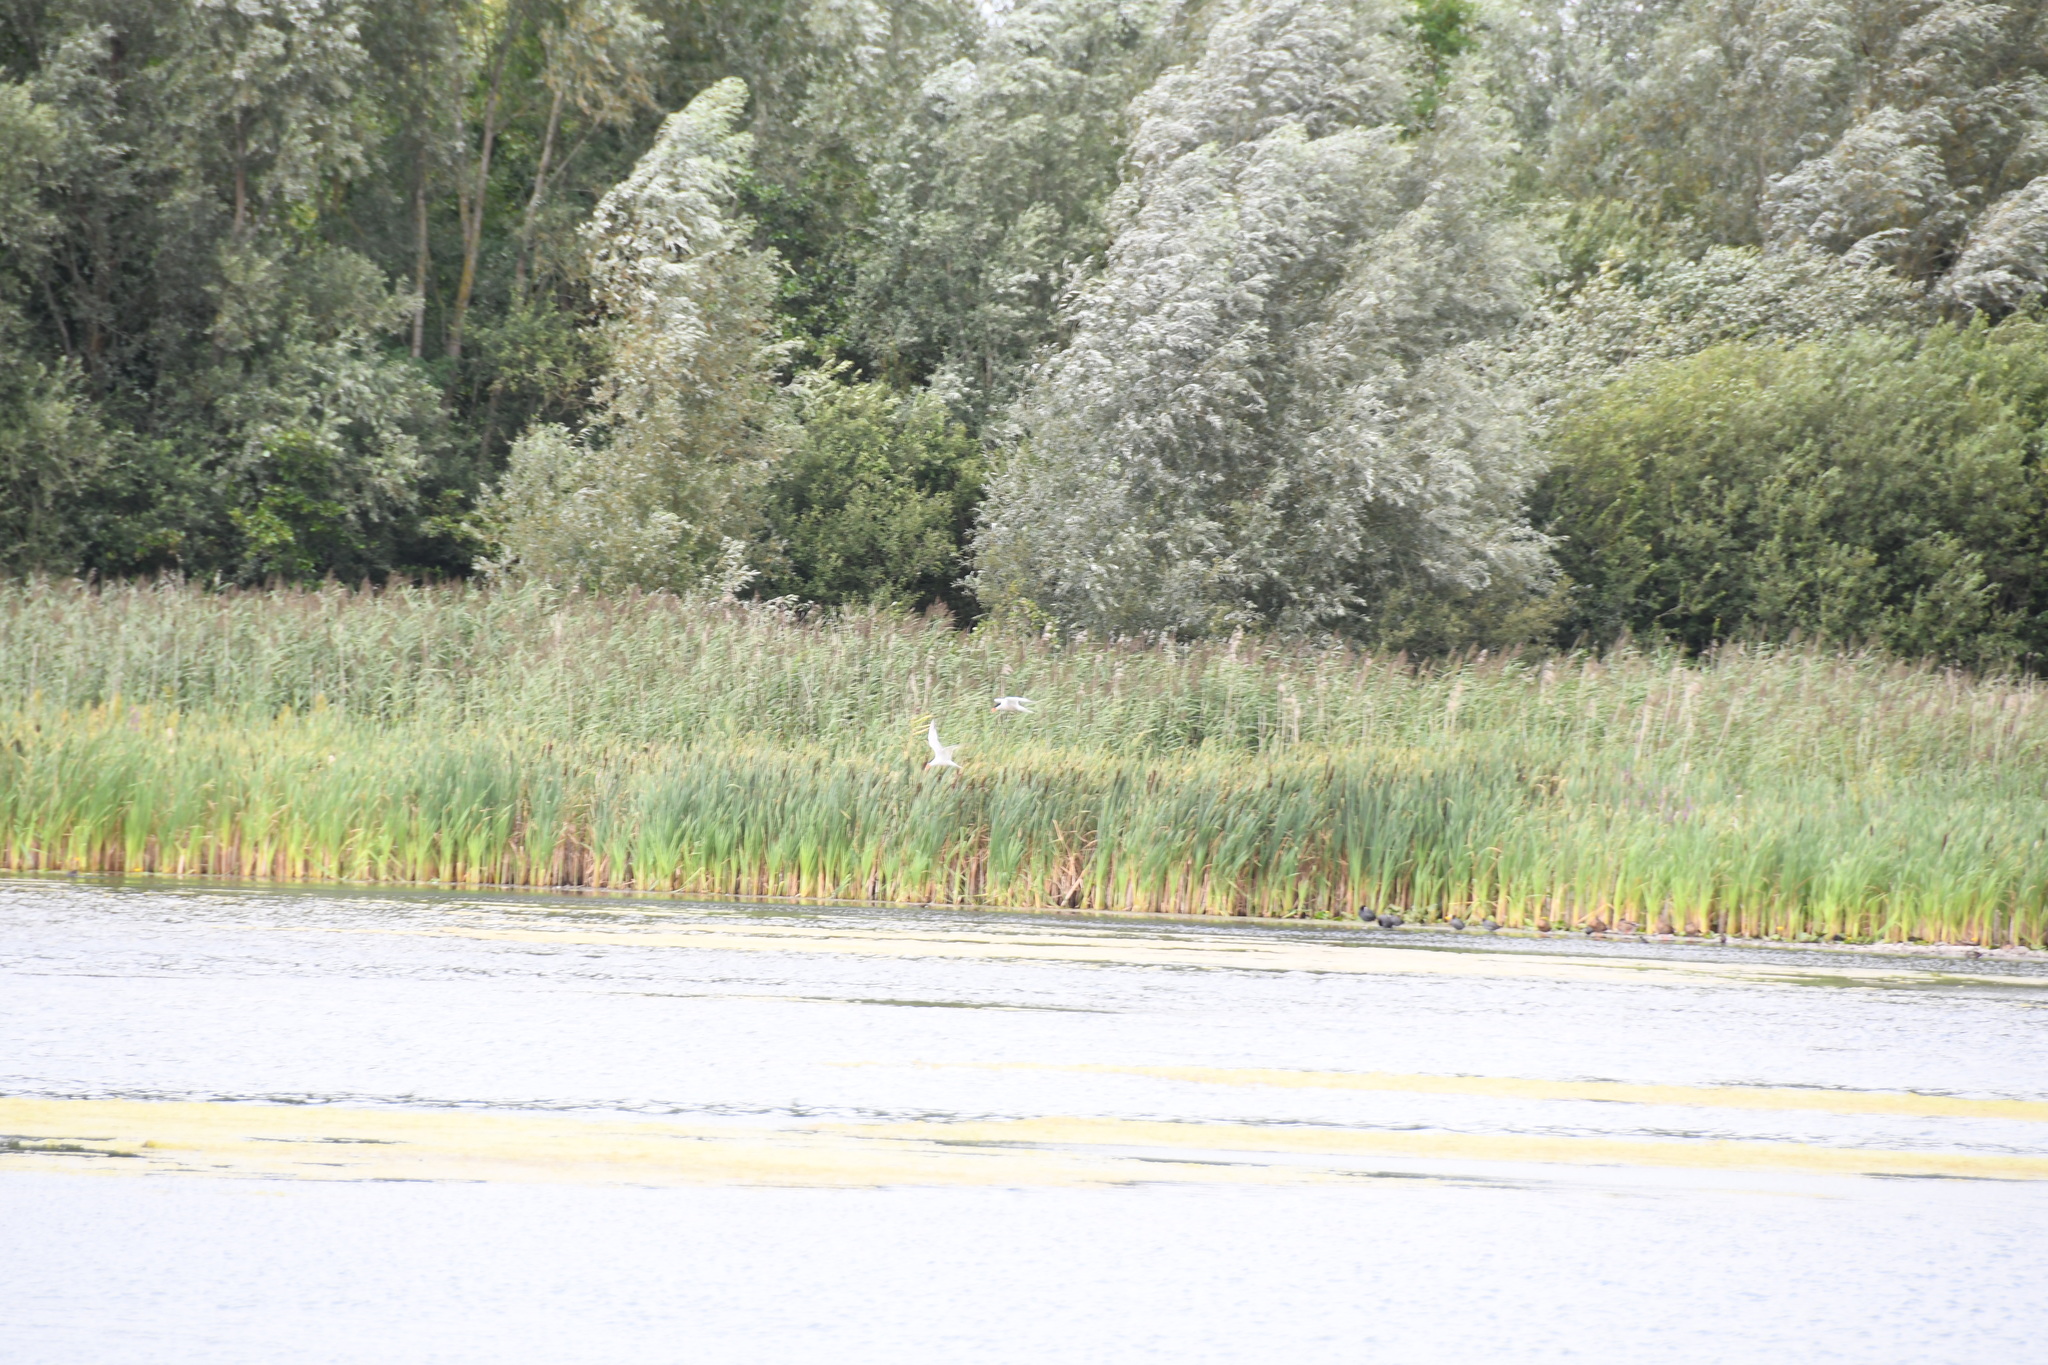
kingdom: Animalia
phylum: Chordata
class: Aves
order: Charadriiformes
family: Laridae
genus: Sterna
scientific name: Sterna hirundo
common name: Common tern
